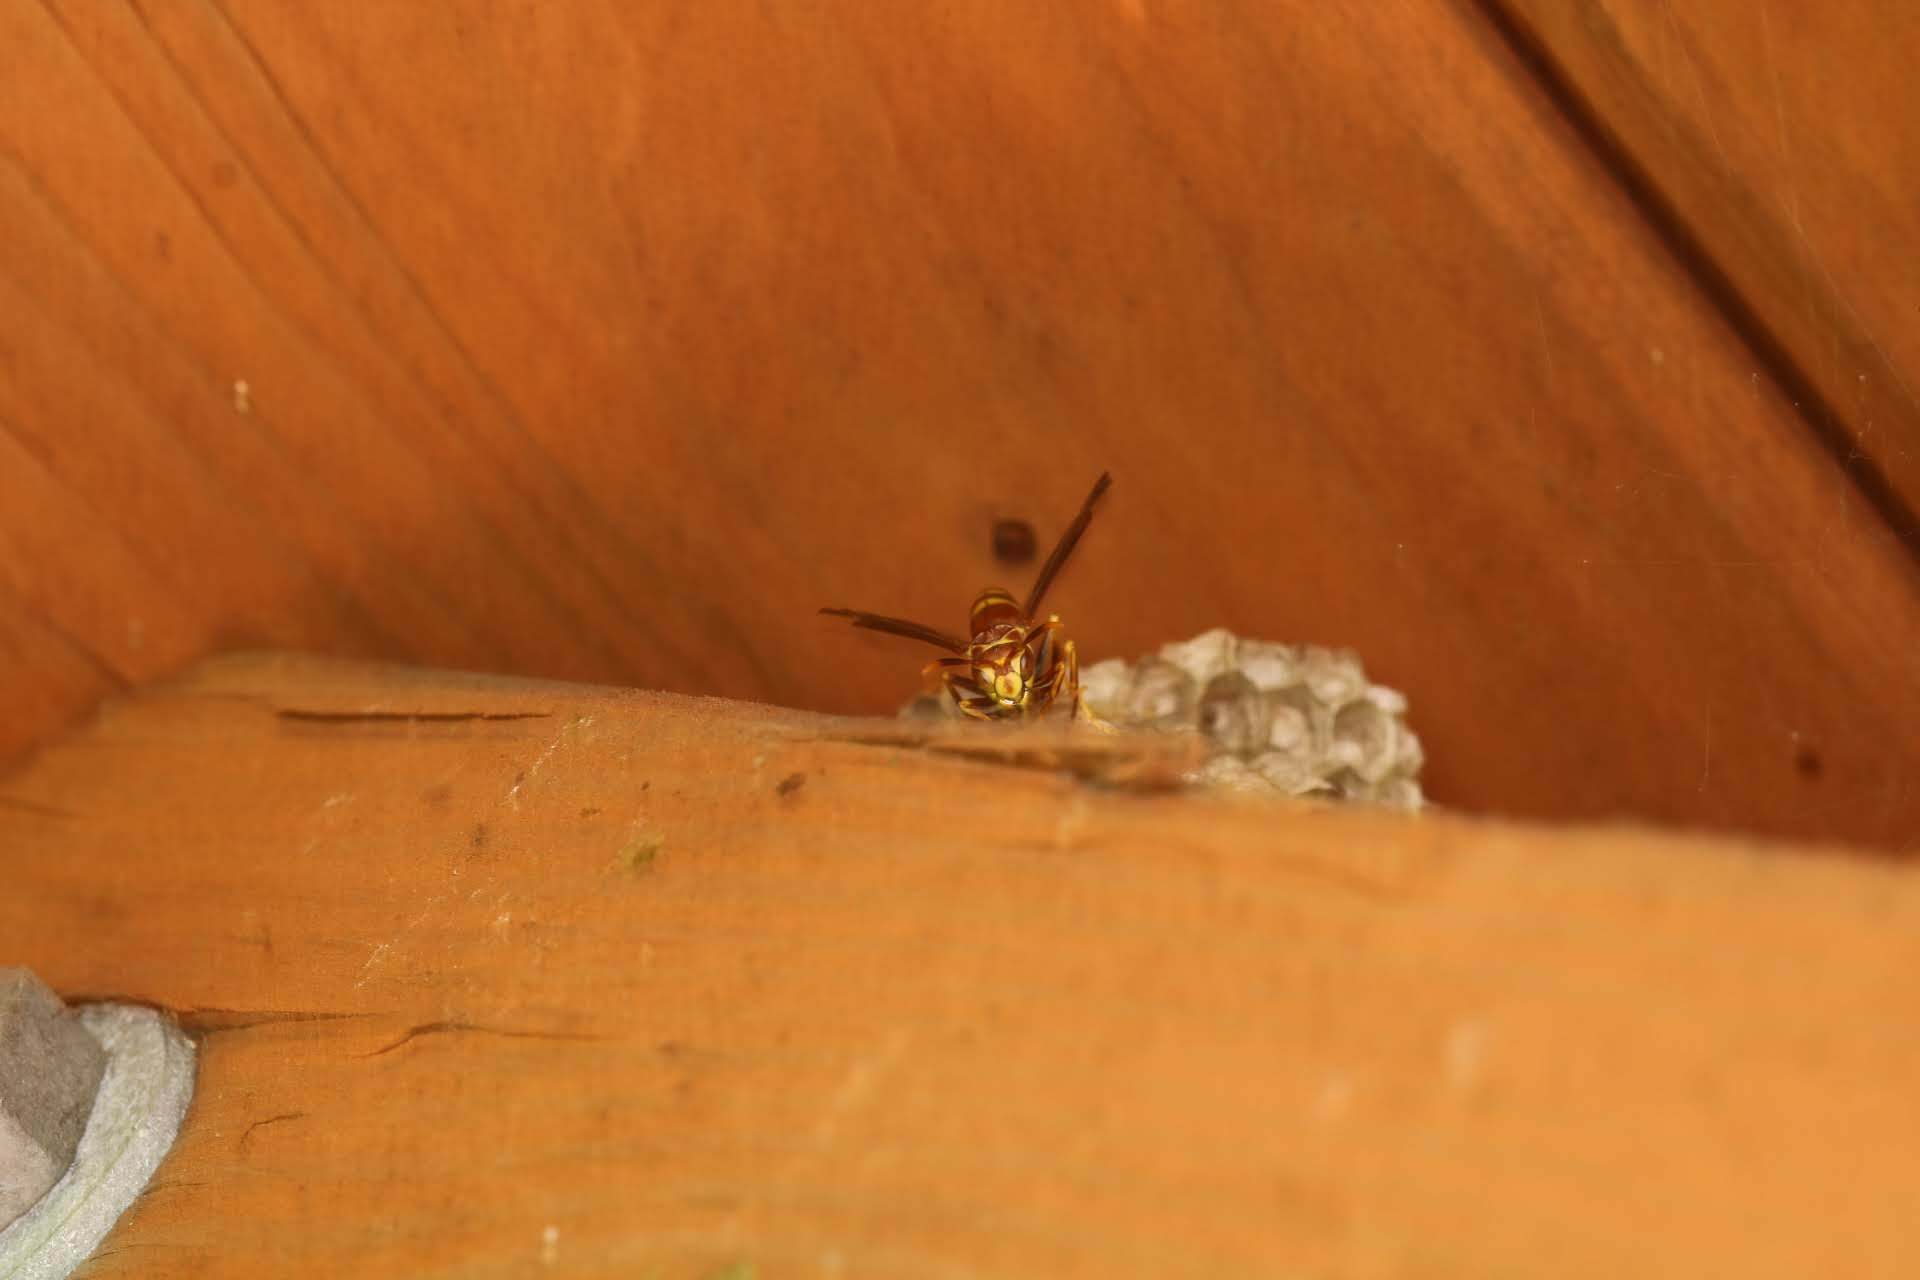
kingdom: Animalia
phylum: Arthropoda
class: Insecta
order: Hymenoptera
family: Eumenidae
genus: Polistes
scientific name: Polistes exclamans
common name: Paper wasp
